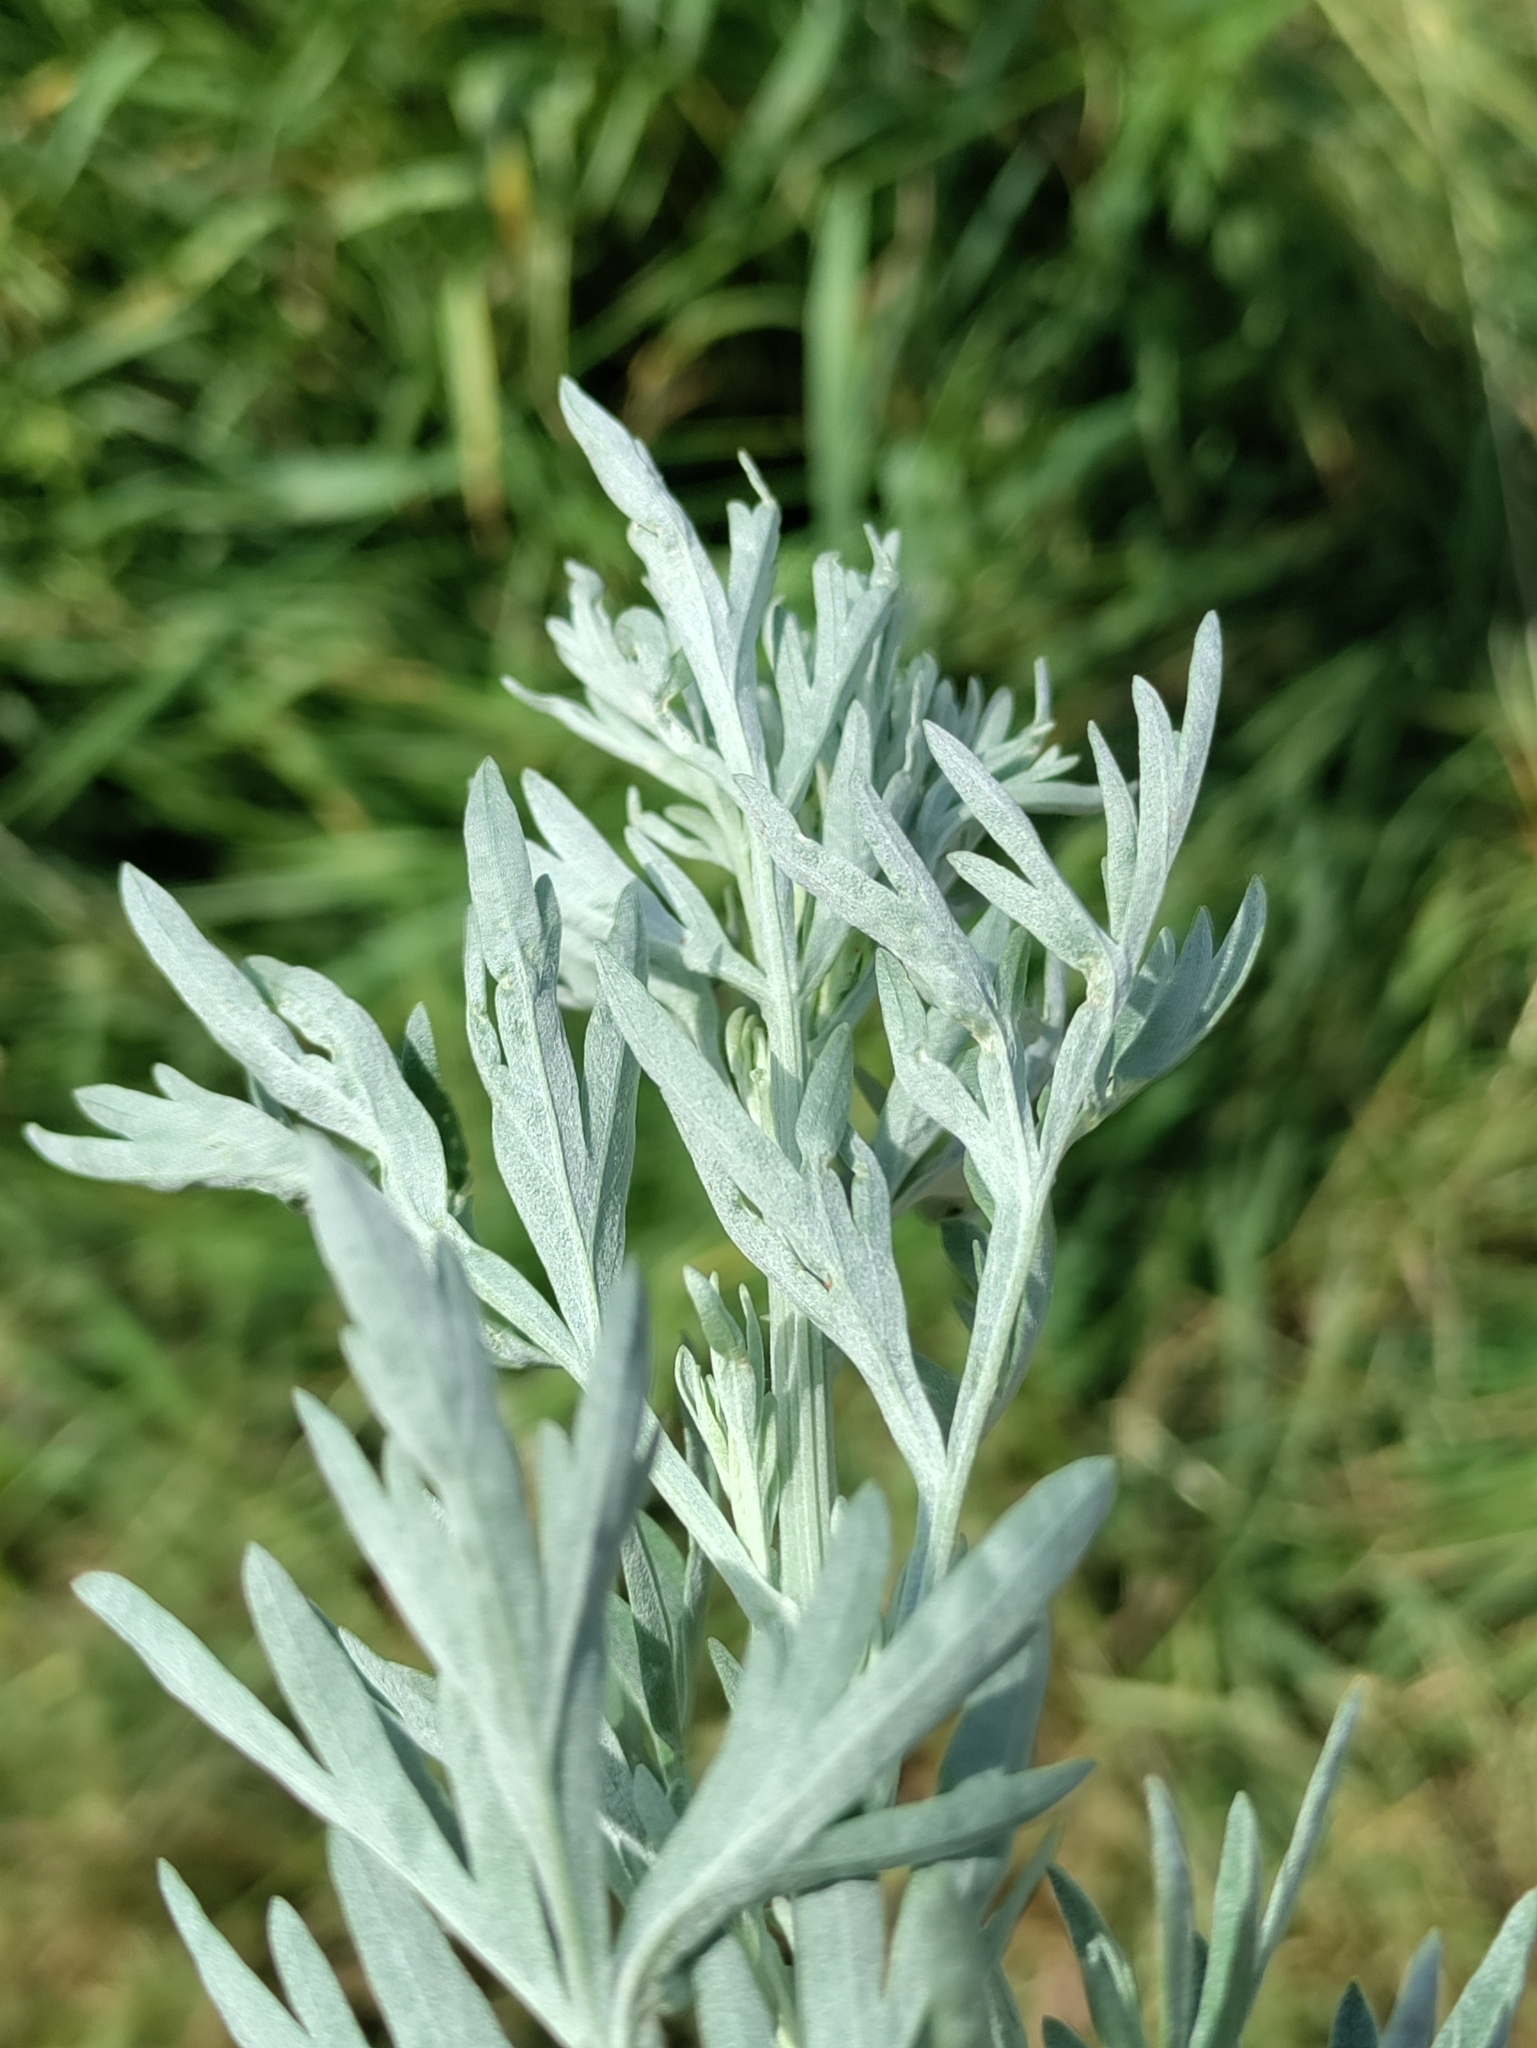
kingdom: Plantae
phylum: Tracheophyta
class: Magnoliopsida
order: Asterales
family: Asteraceae
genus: Artemisia
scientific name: Artemisia absinthium
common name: Wormwood
